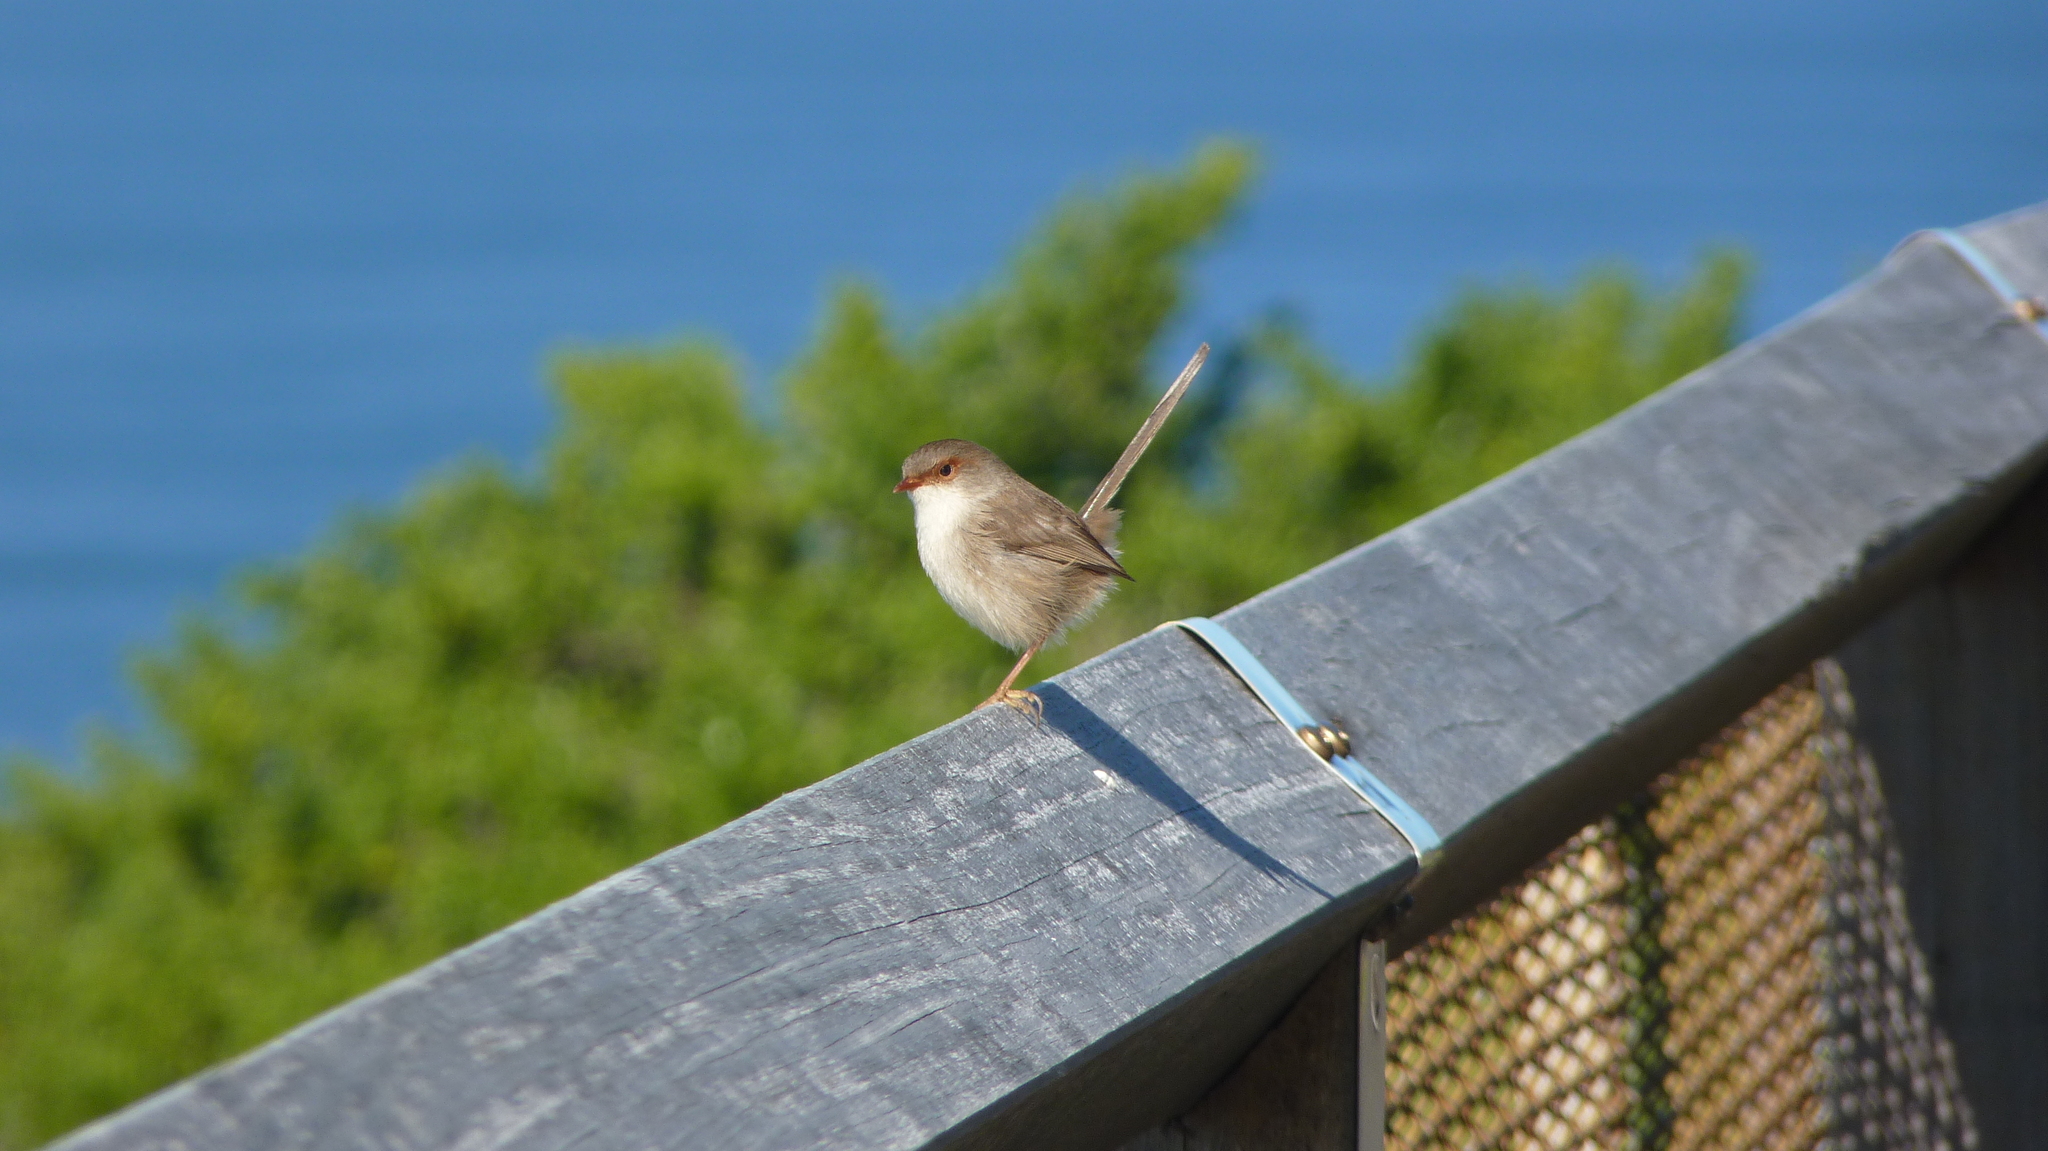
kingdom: Animalia
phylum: Chordata
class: Aves
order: Passeriformes
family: Maluridae
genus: Malurus
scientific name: Malurus cyaneus
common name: Superb fairywren
